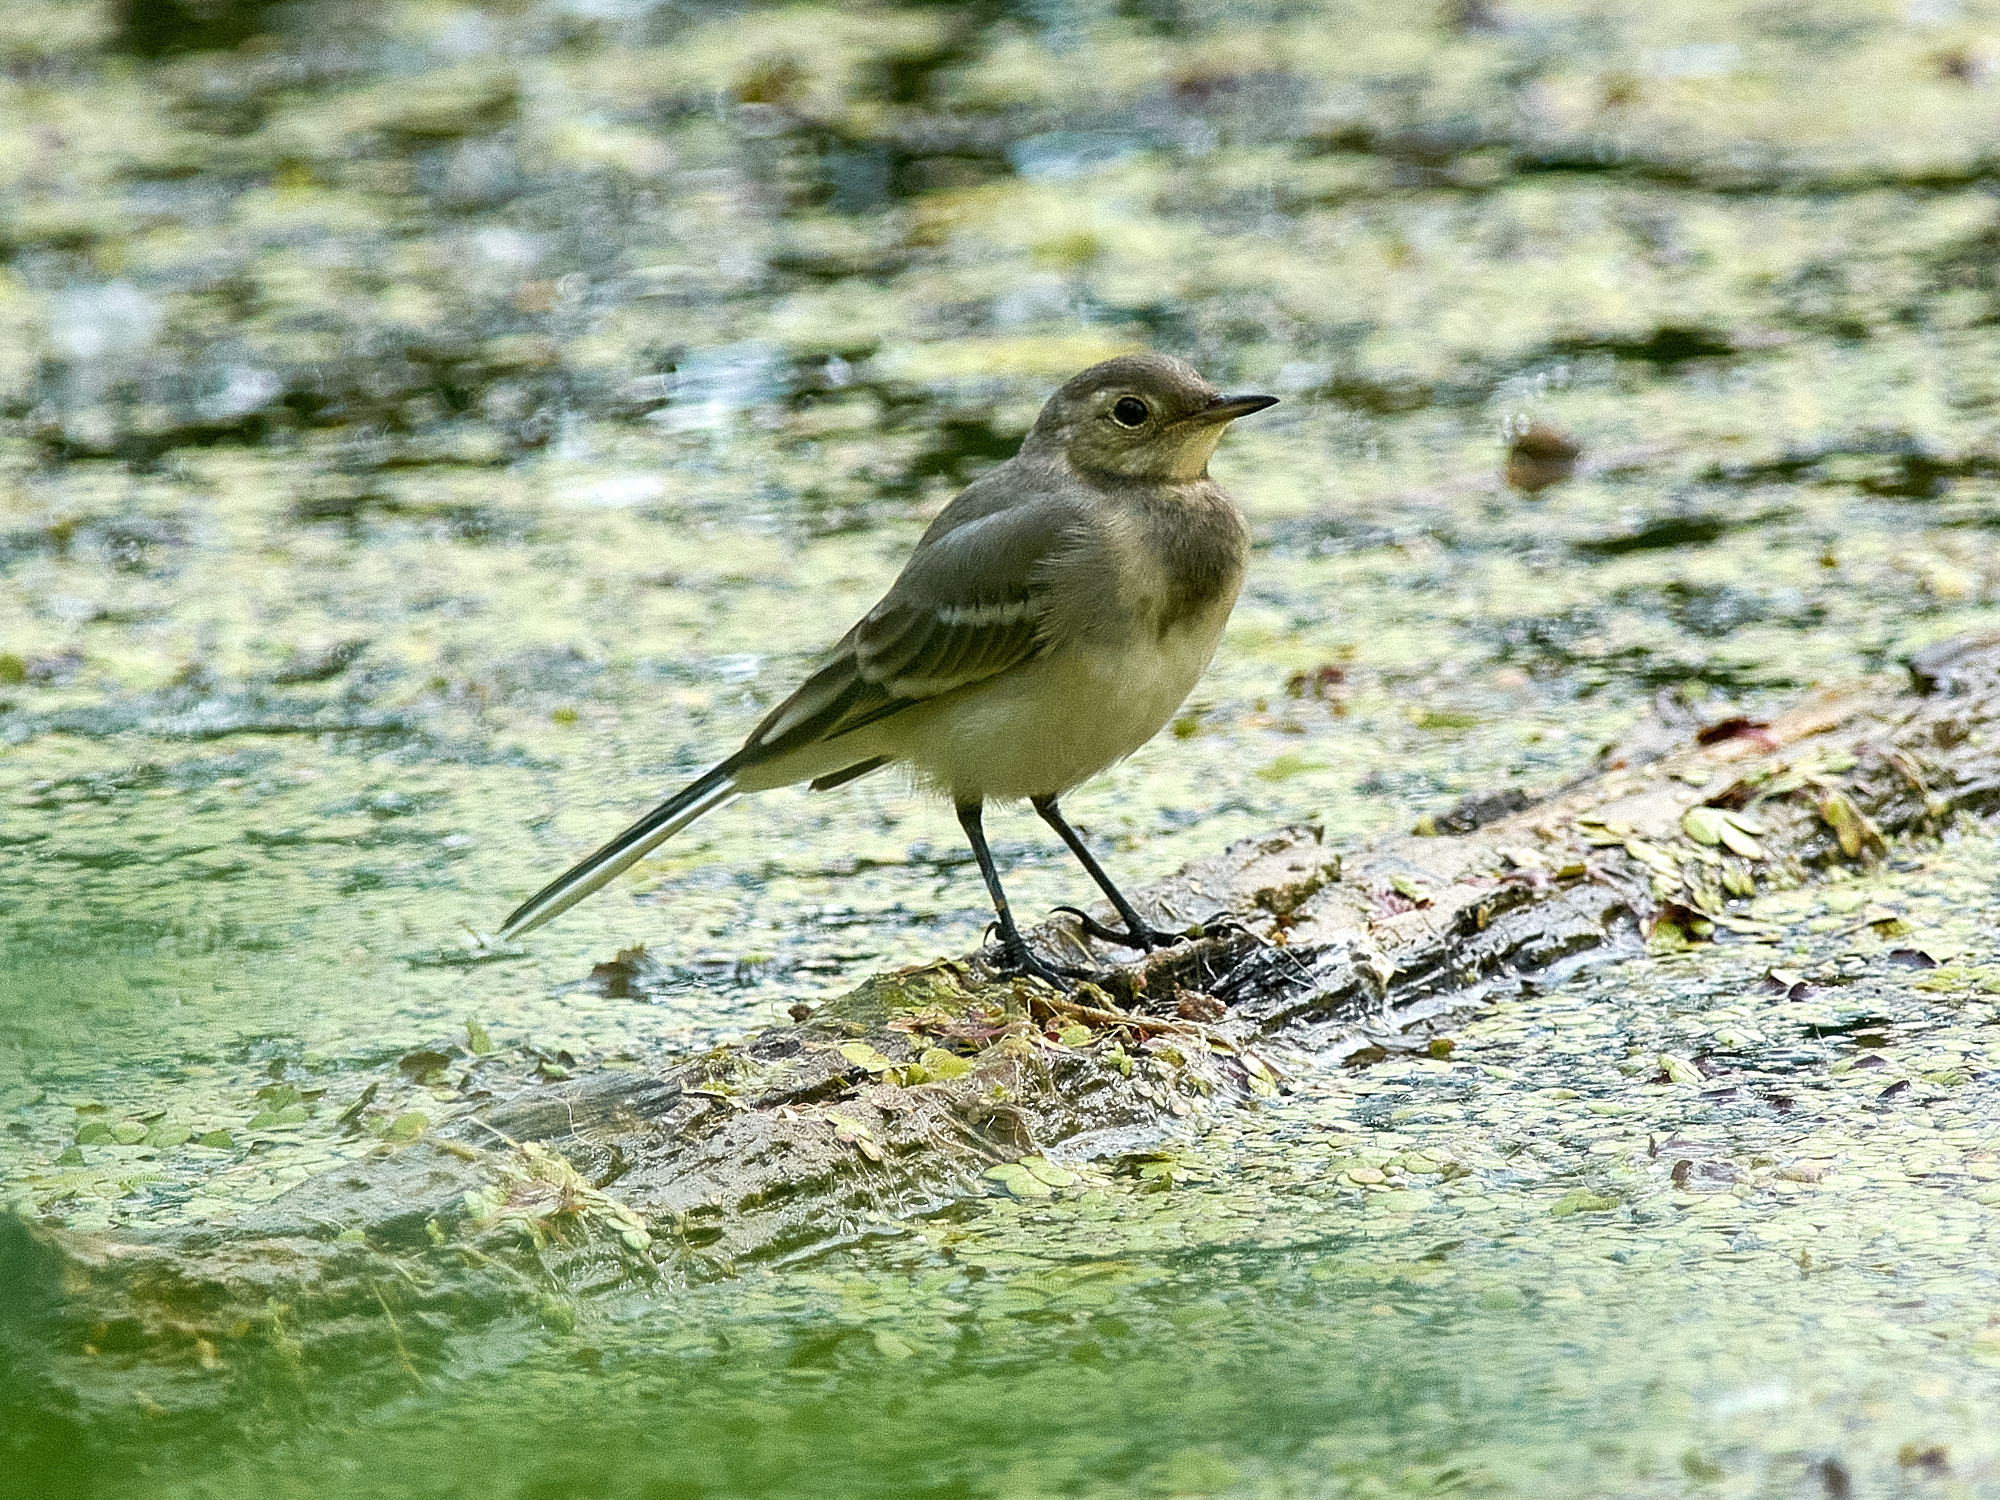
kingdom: Animalia
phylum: Chordata
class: Aves
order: Passeriformes
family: Motacillidae
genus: Motacilla
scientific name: Motacilla alba
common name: White wagtail
